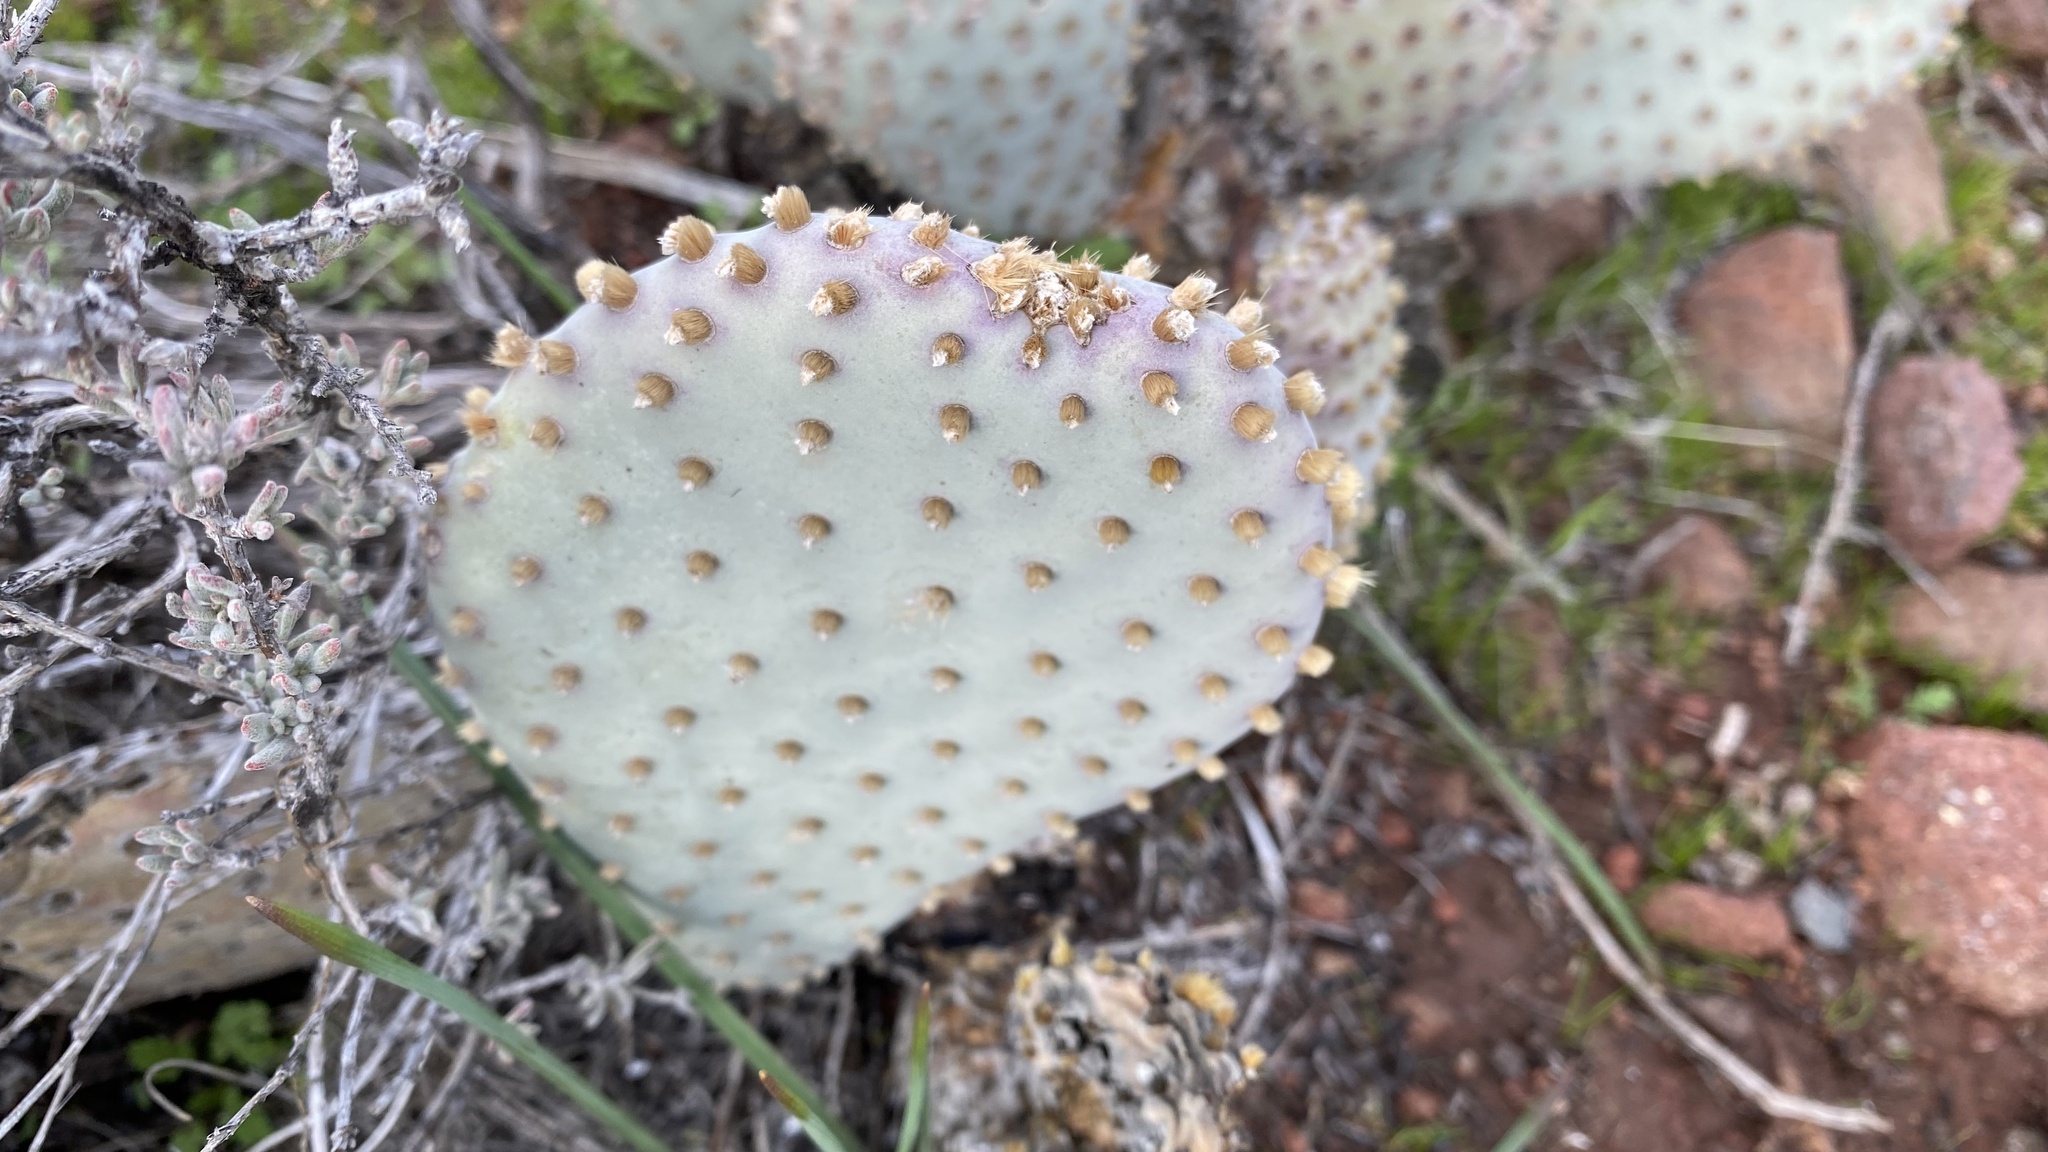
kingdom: Plantae
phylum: Tracheophyta
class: Magnoliopsida
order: Caryophyllales
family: Cactaceae
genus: Opuntia
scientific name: Opuntia basilaris
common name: Beavertail prickly-pear
